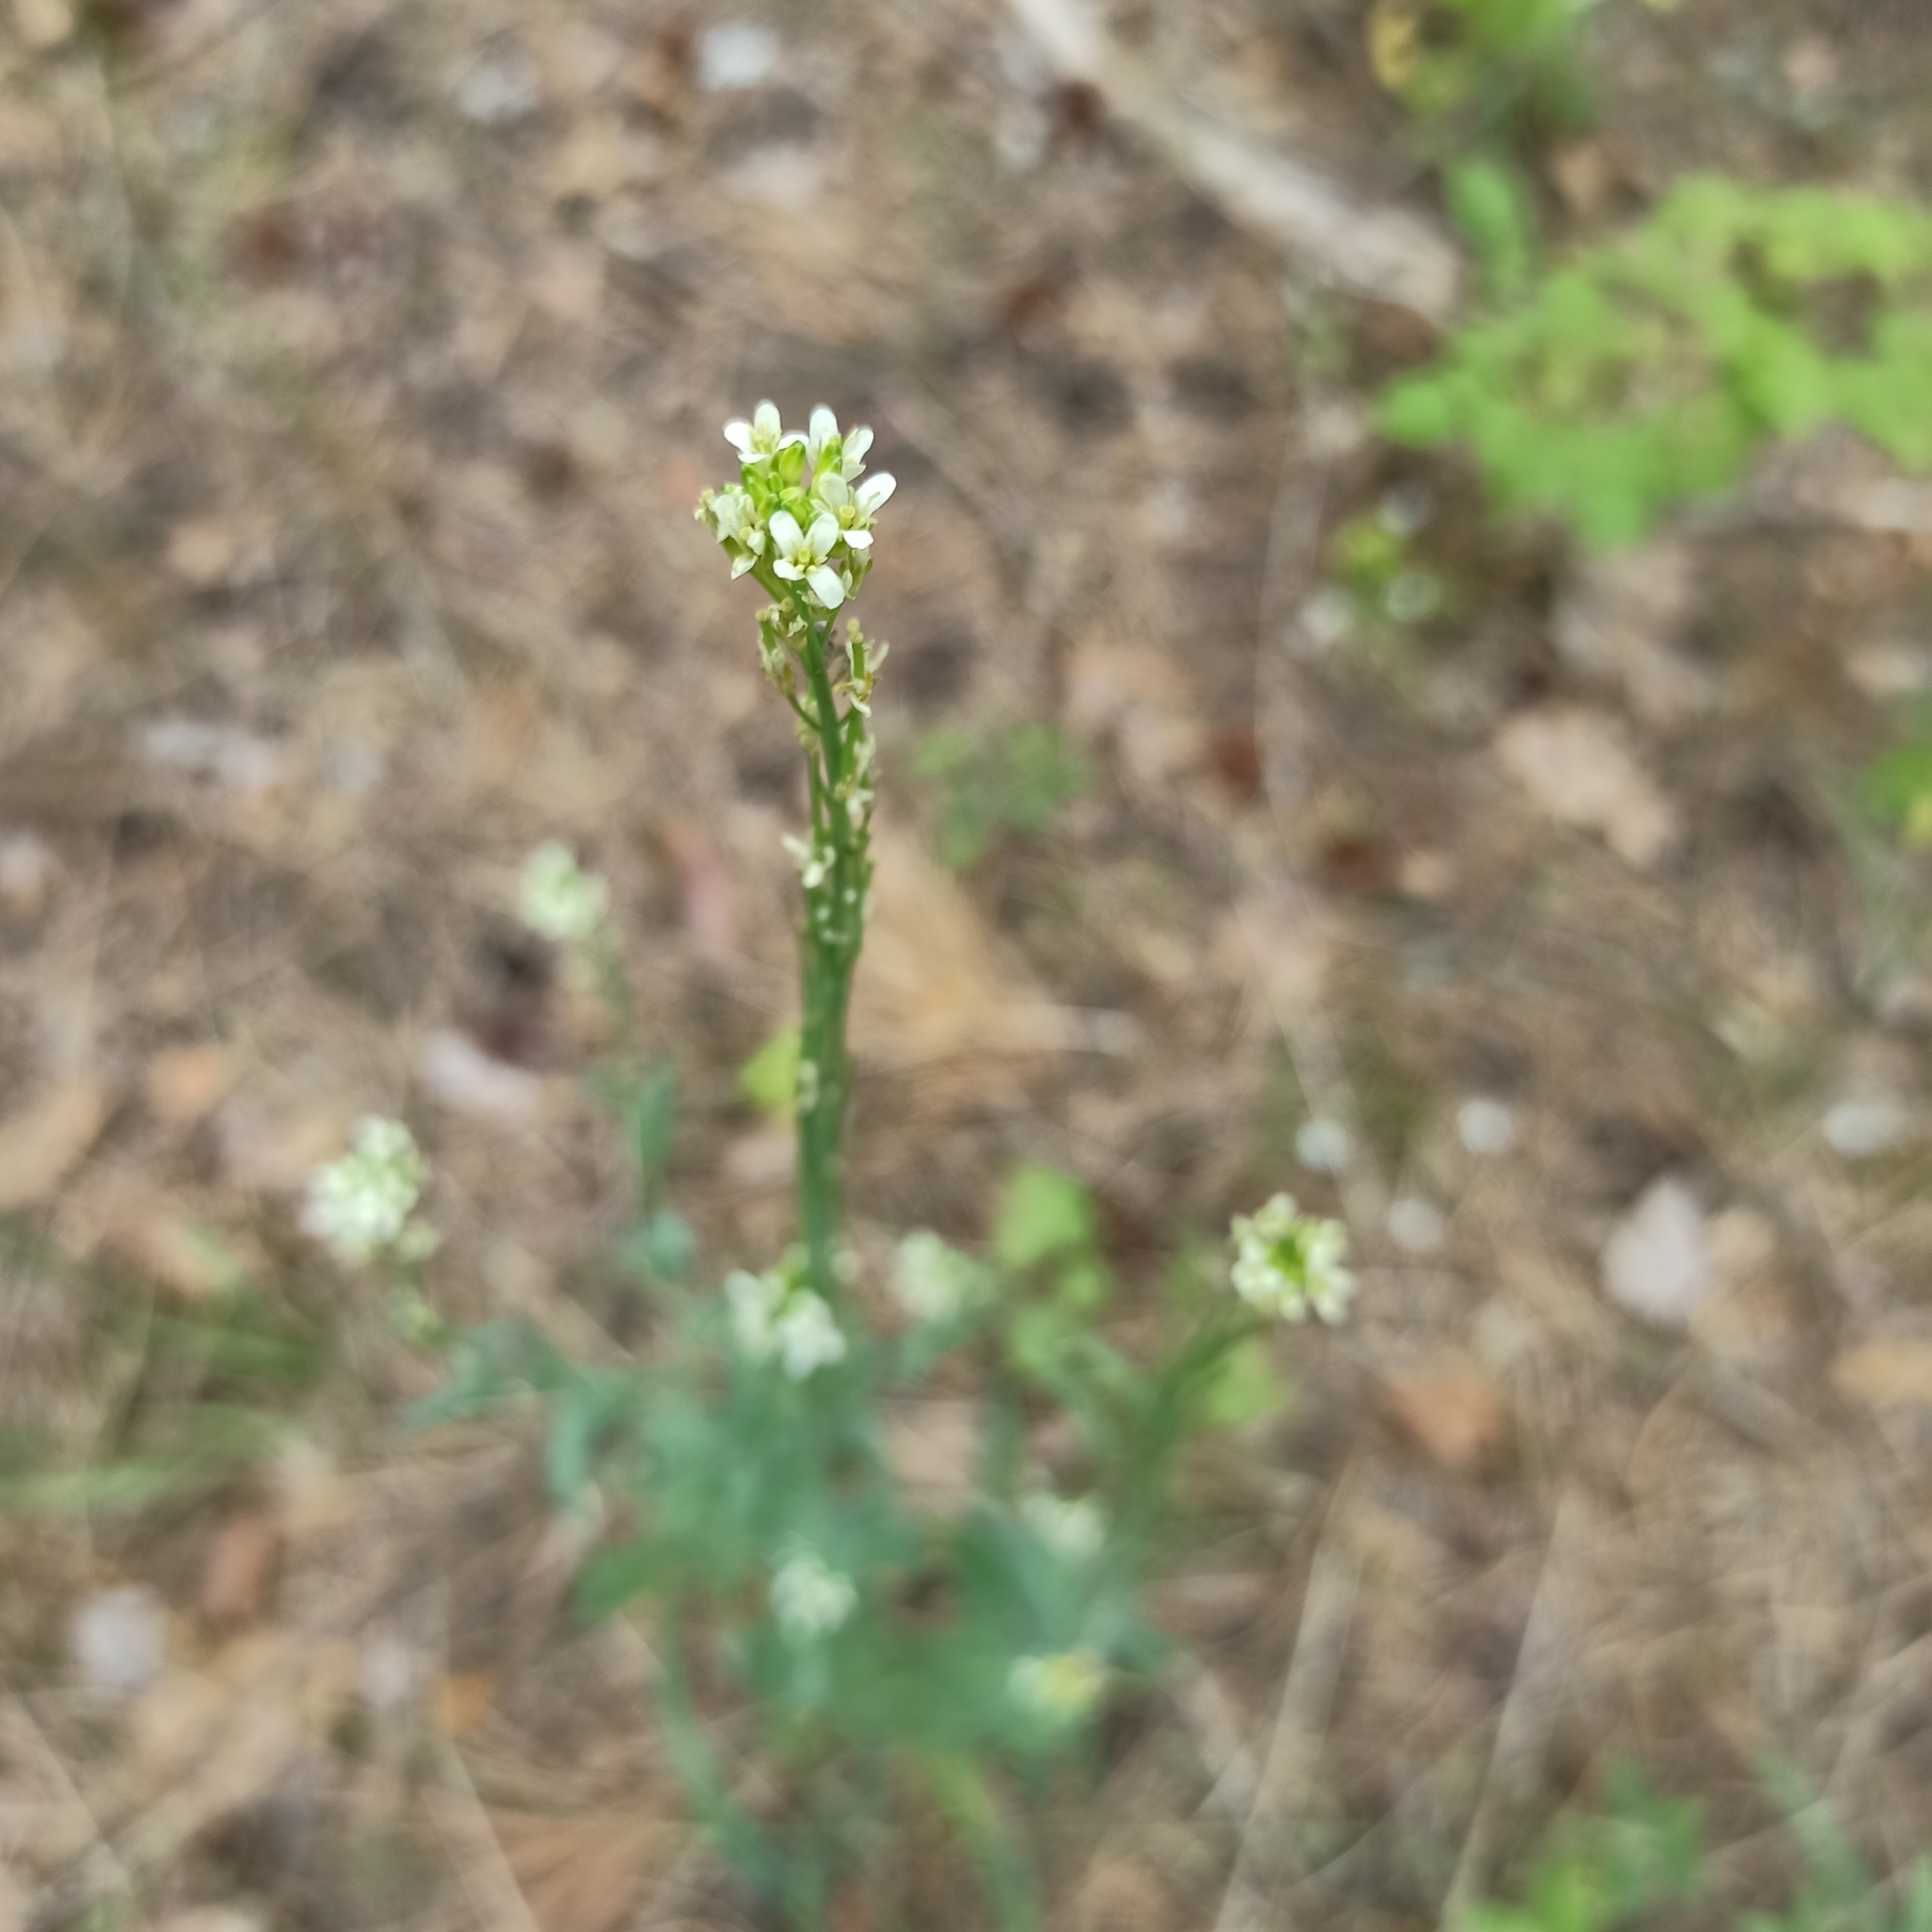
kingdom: Plantae
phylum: Tracheophyta
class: Magnoliopsida
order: Brassicales
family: Brassicaceae
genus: Berteroa
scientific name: Berteroa incana
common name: Hoary alison
